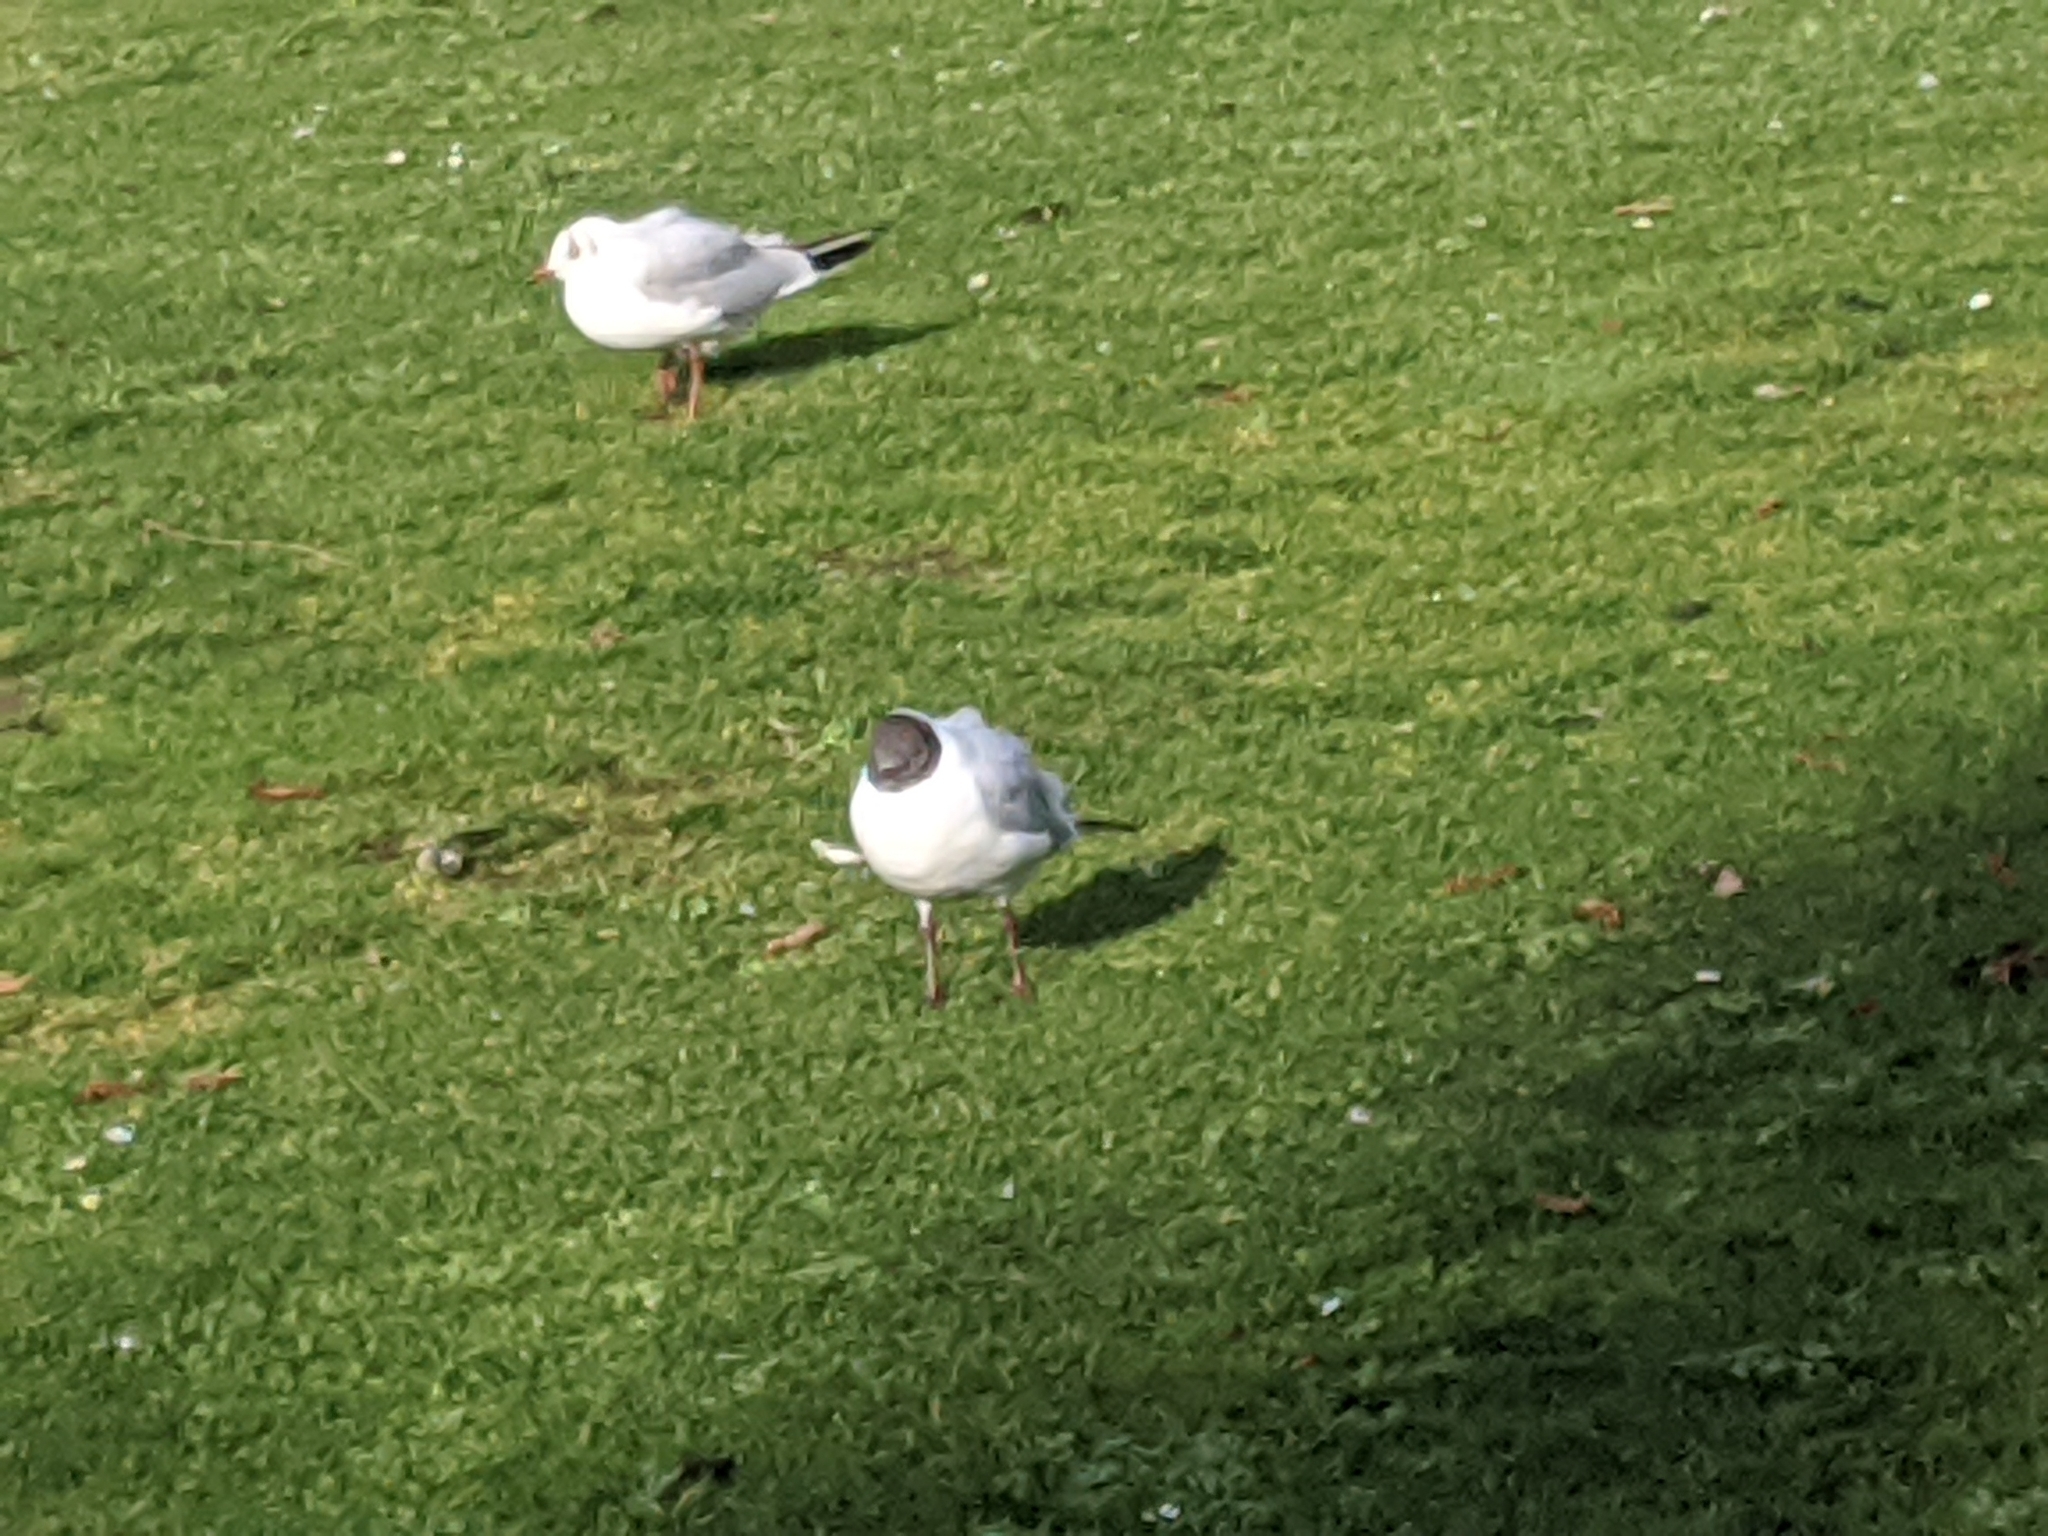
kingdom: Animalia
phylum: Chordata
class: Aves
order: Charadriiformes
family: Laridae
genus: Chroicocephalus
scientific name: Chroicocephalus ridibundus
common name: Black-headed gull
